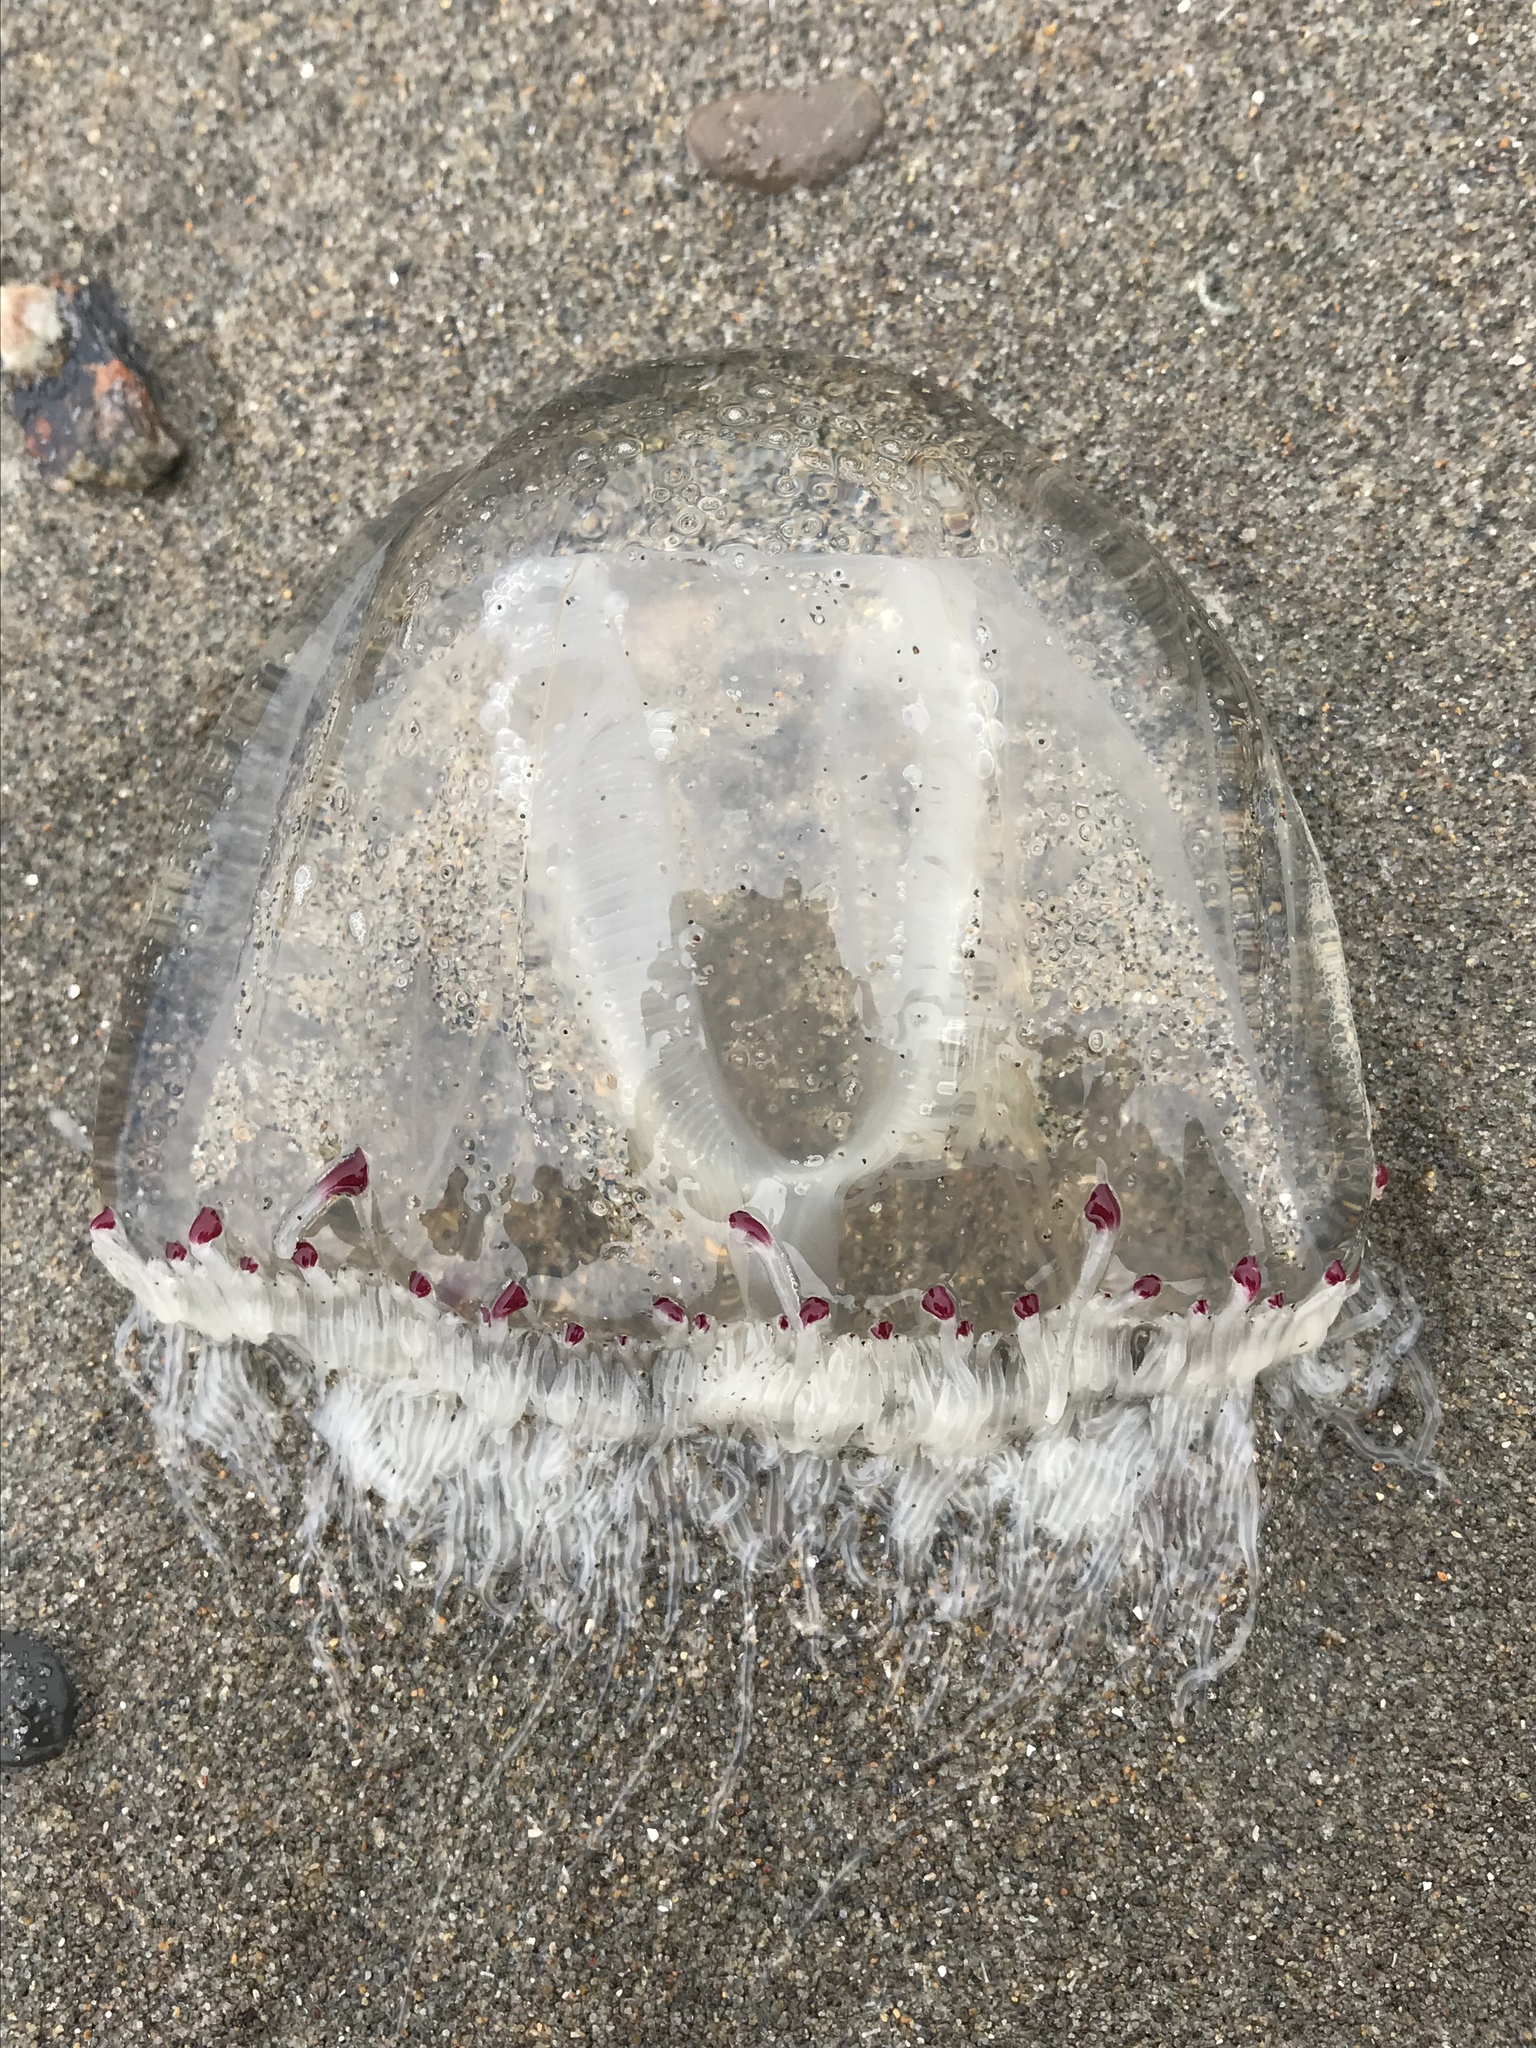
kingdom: Animalia
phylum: Cnidaria
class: Hydrozoa
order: Anthoathecata
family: Corynidae
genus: Scrippsia
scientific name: Scrippsia pacifica
